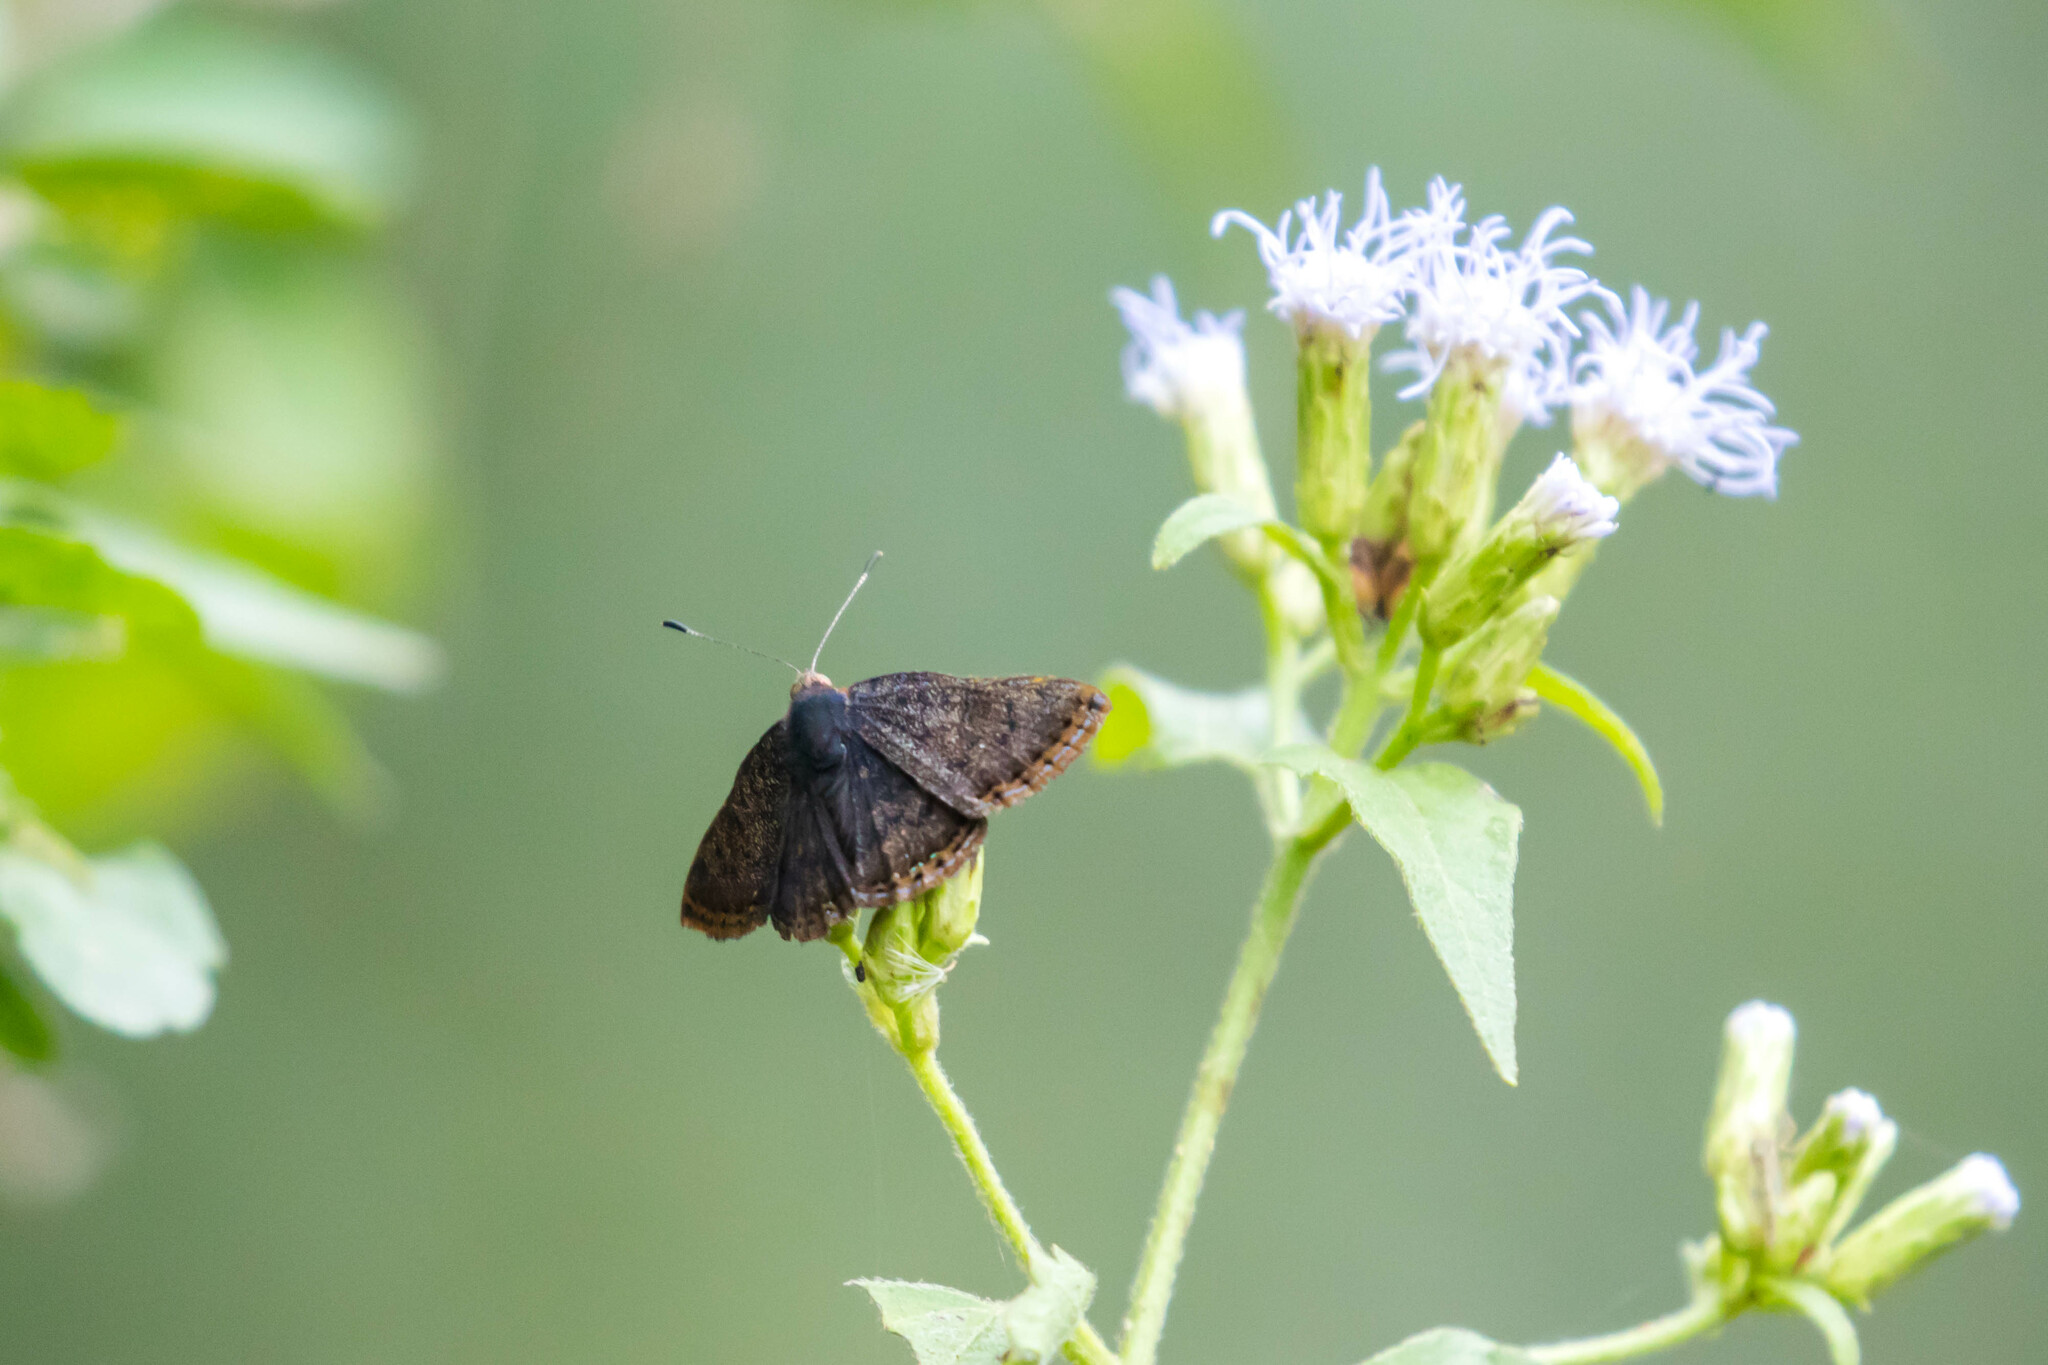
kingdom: Animalia
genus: Caria
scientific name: Caria ino
